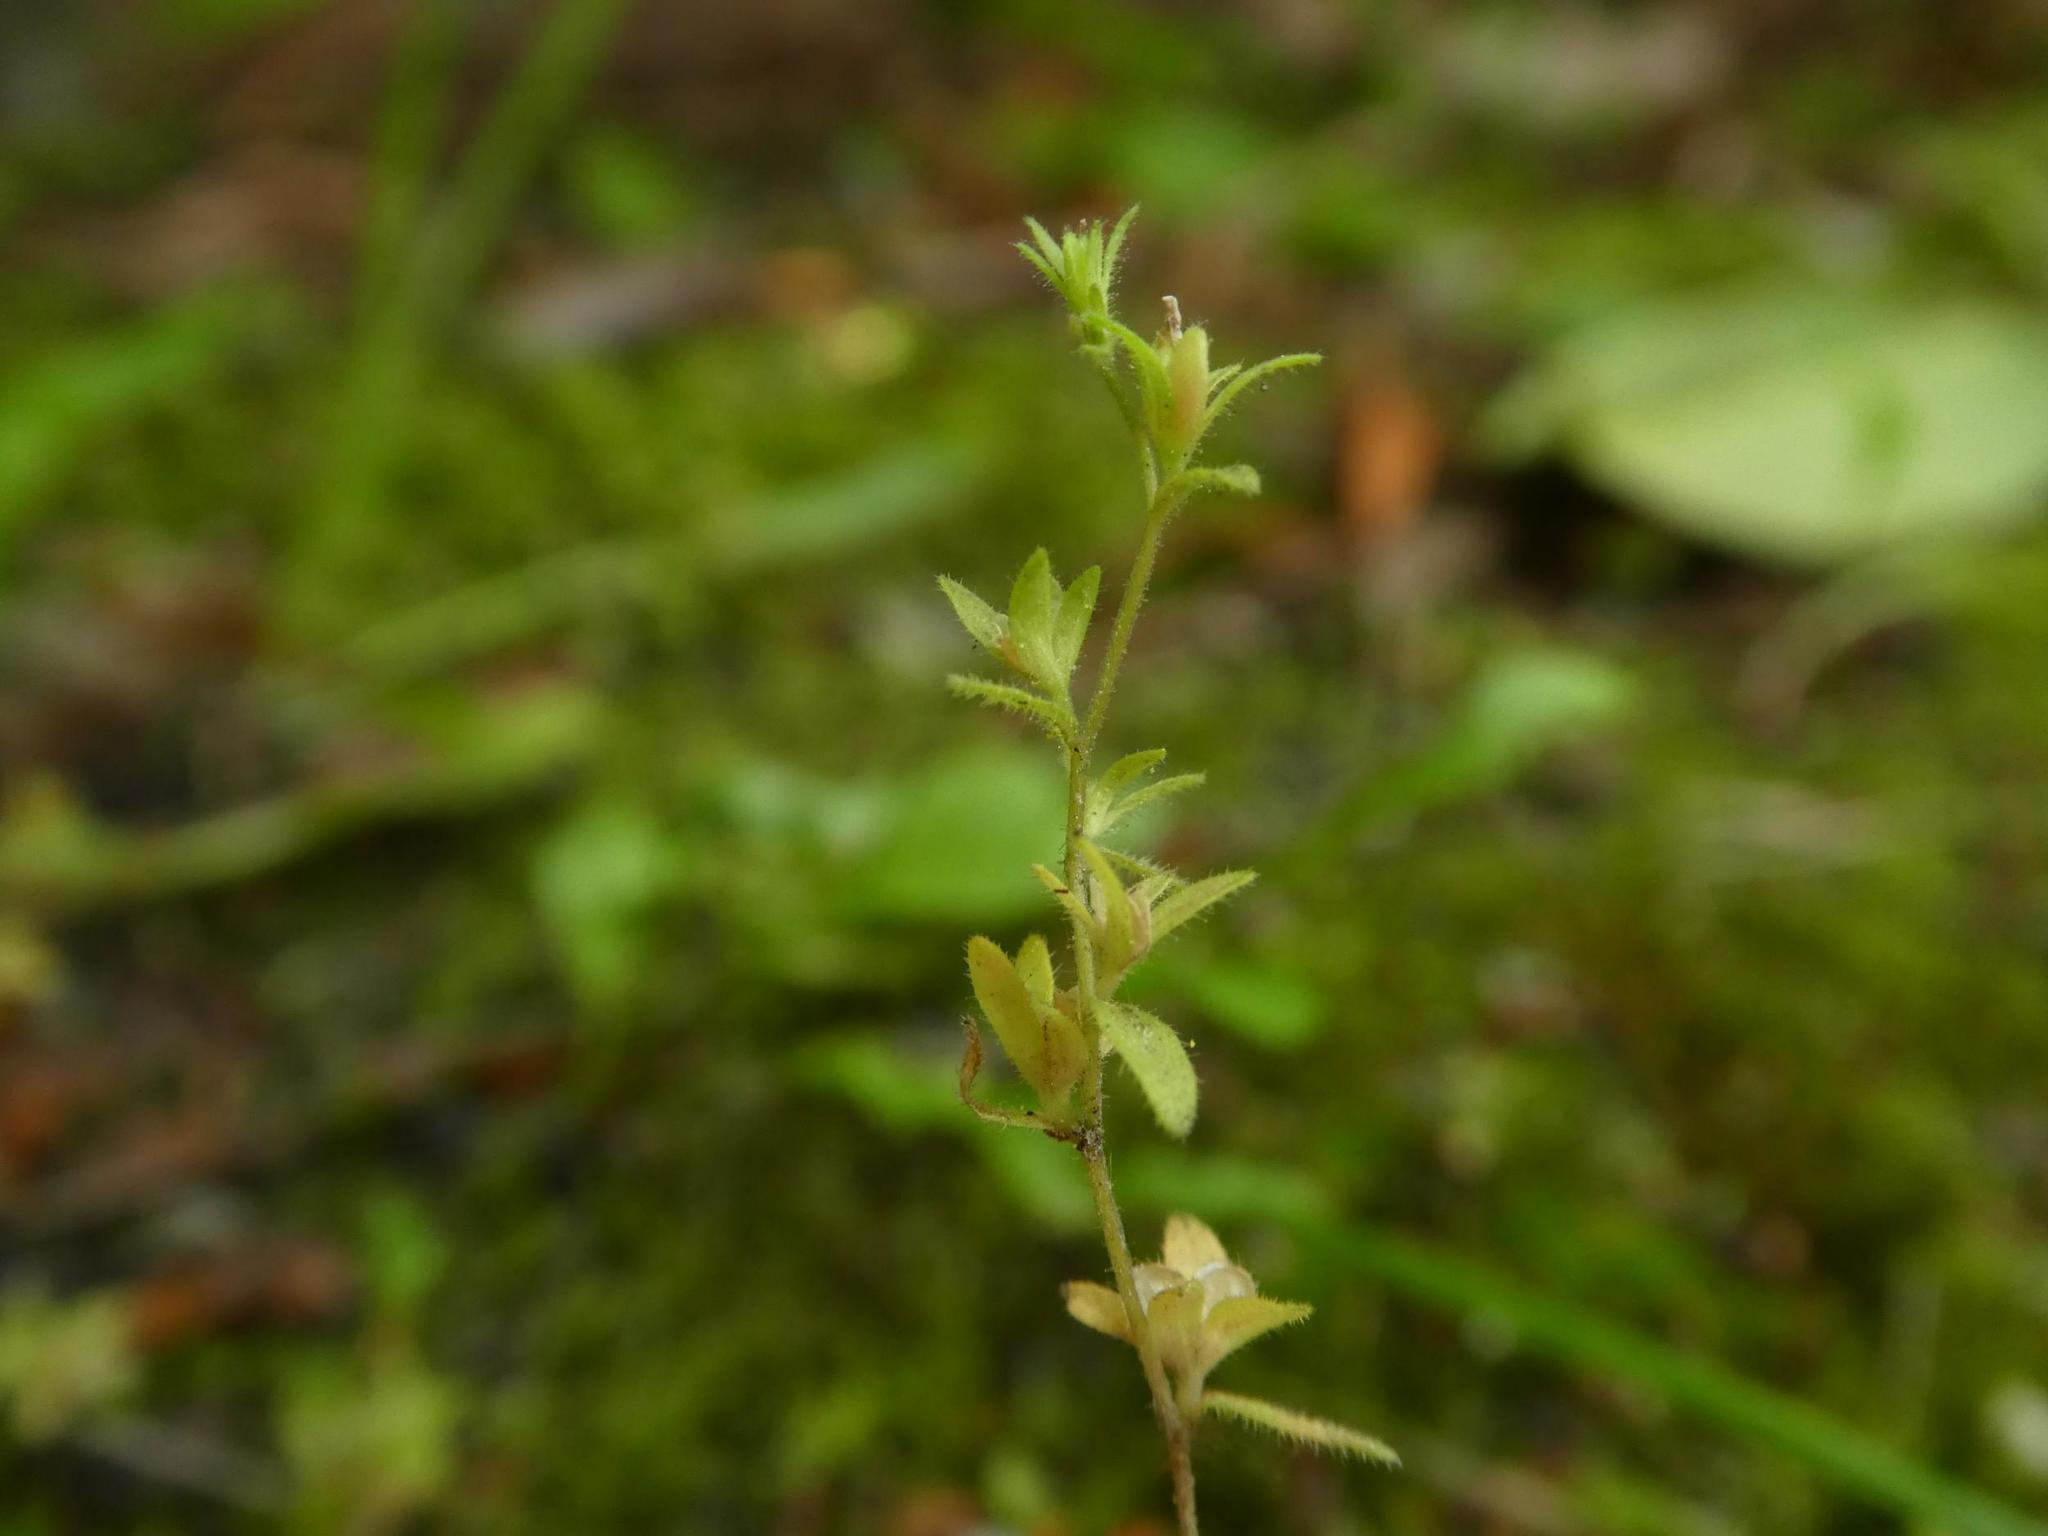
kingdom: Plantae
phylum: Tracheophyta
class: Magnoliopsida
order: Lamiales
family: Plantaginaceae
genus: Veronica
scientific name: Veronica arvensis
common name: Corn speedwell
